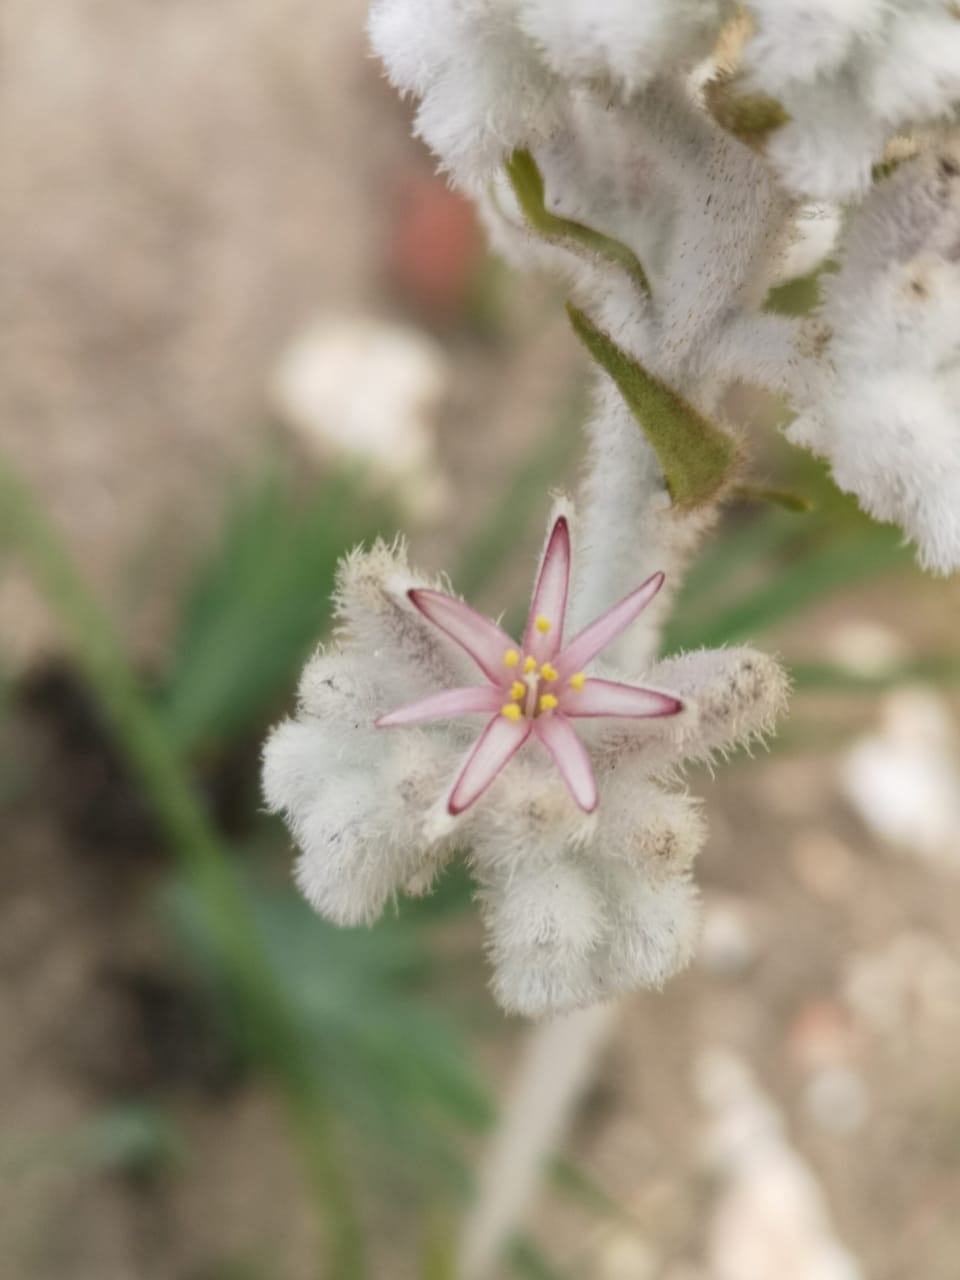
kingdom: Plantae
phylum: Tracheophyta
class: Liliopsida
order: Asparagales
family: Lanariaceae
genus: Lanaria
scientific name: Lanaria lanata
